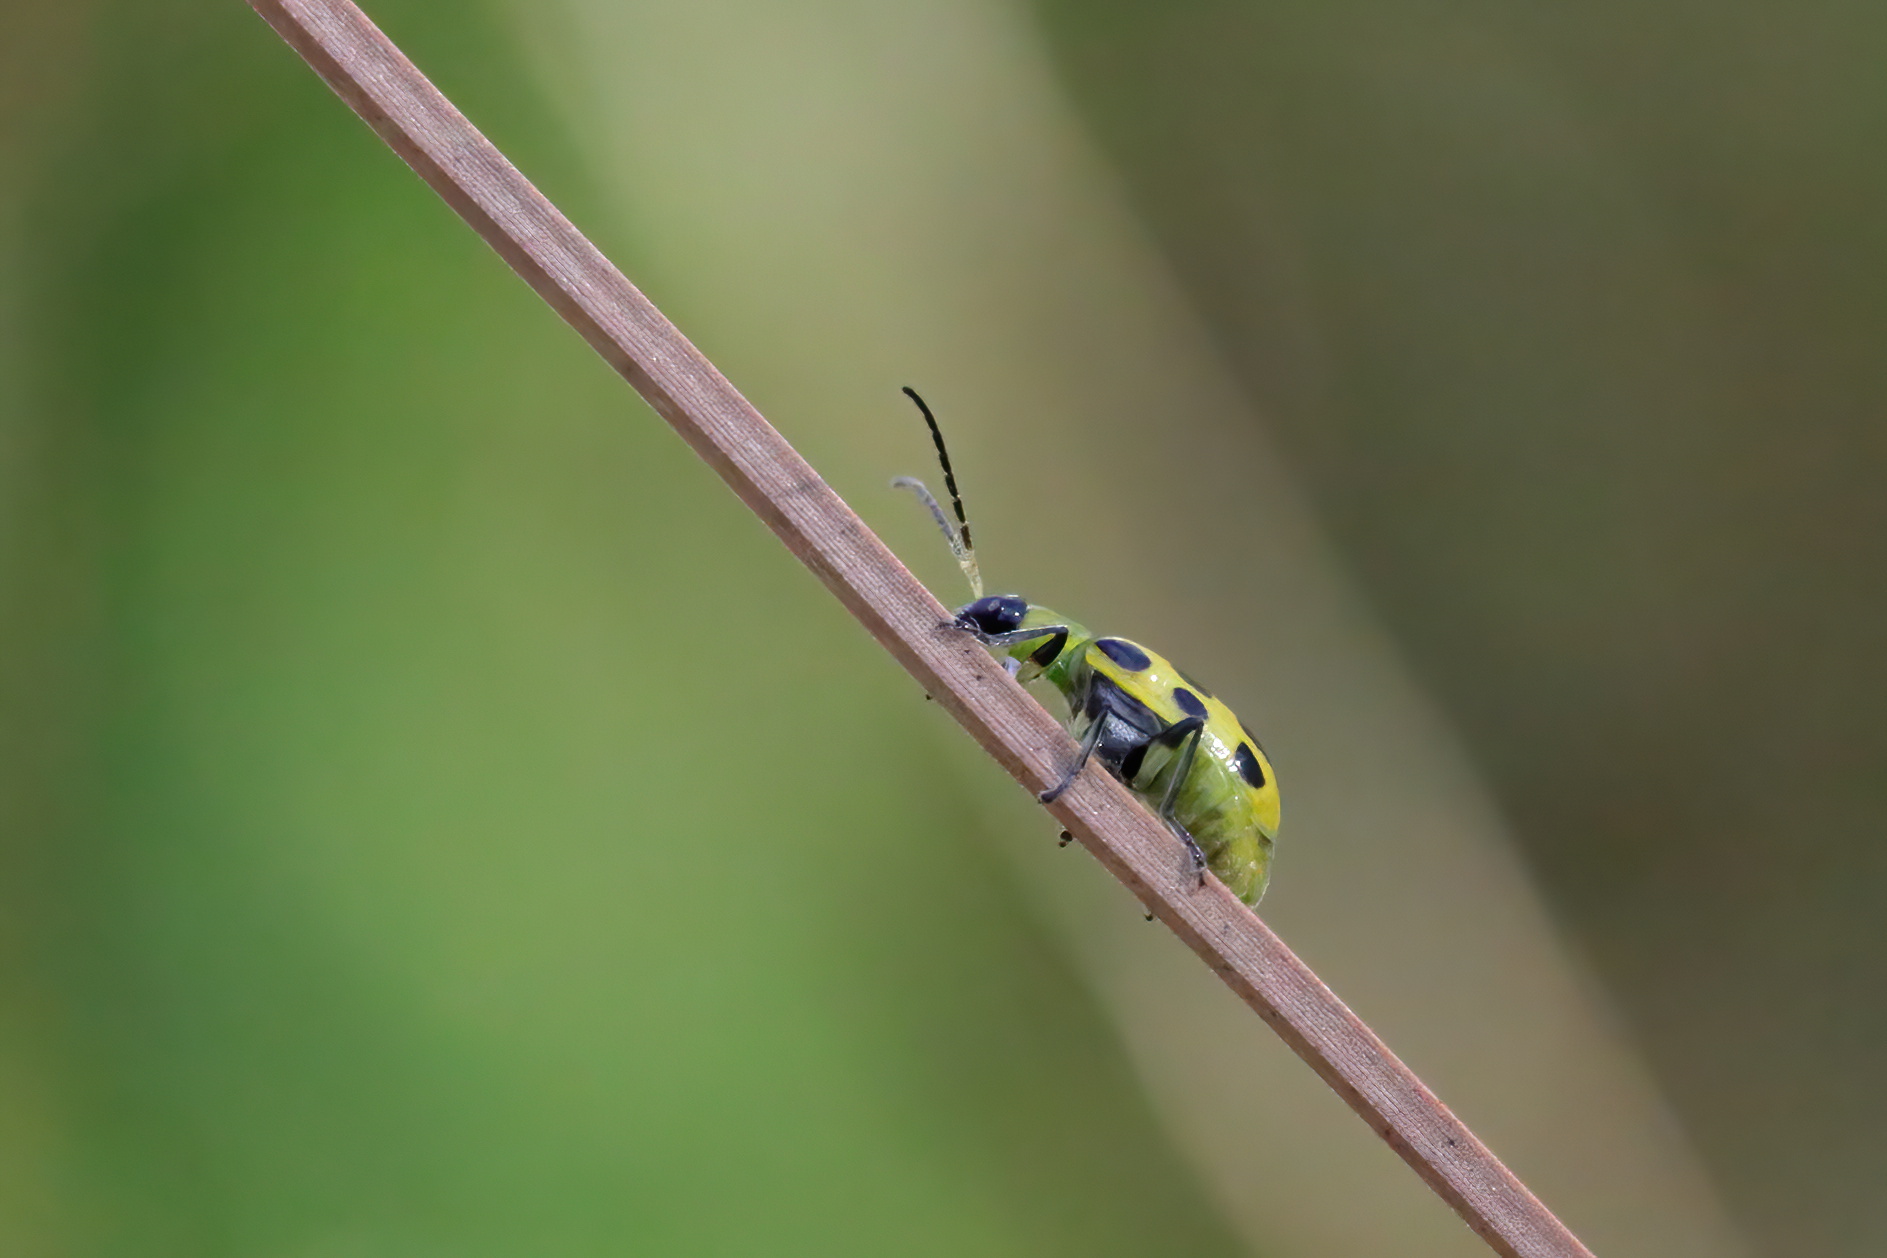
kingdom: Animalia
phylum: Arthropoda
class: Insecta
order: Coleoptera
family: Chrysomelidae
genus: Diabrotica
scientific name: Diabrotica undecimpunctata
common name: Spotted cucumber beetle
